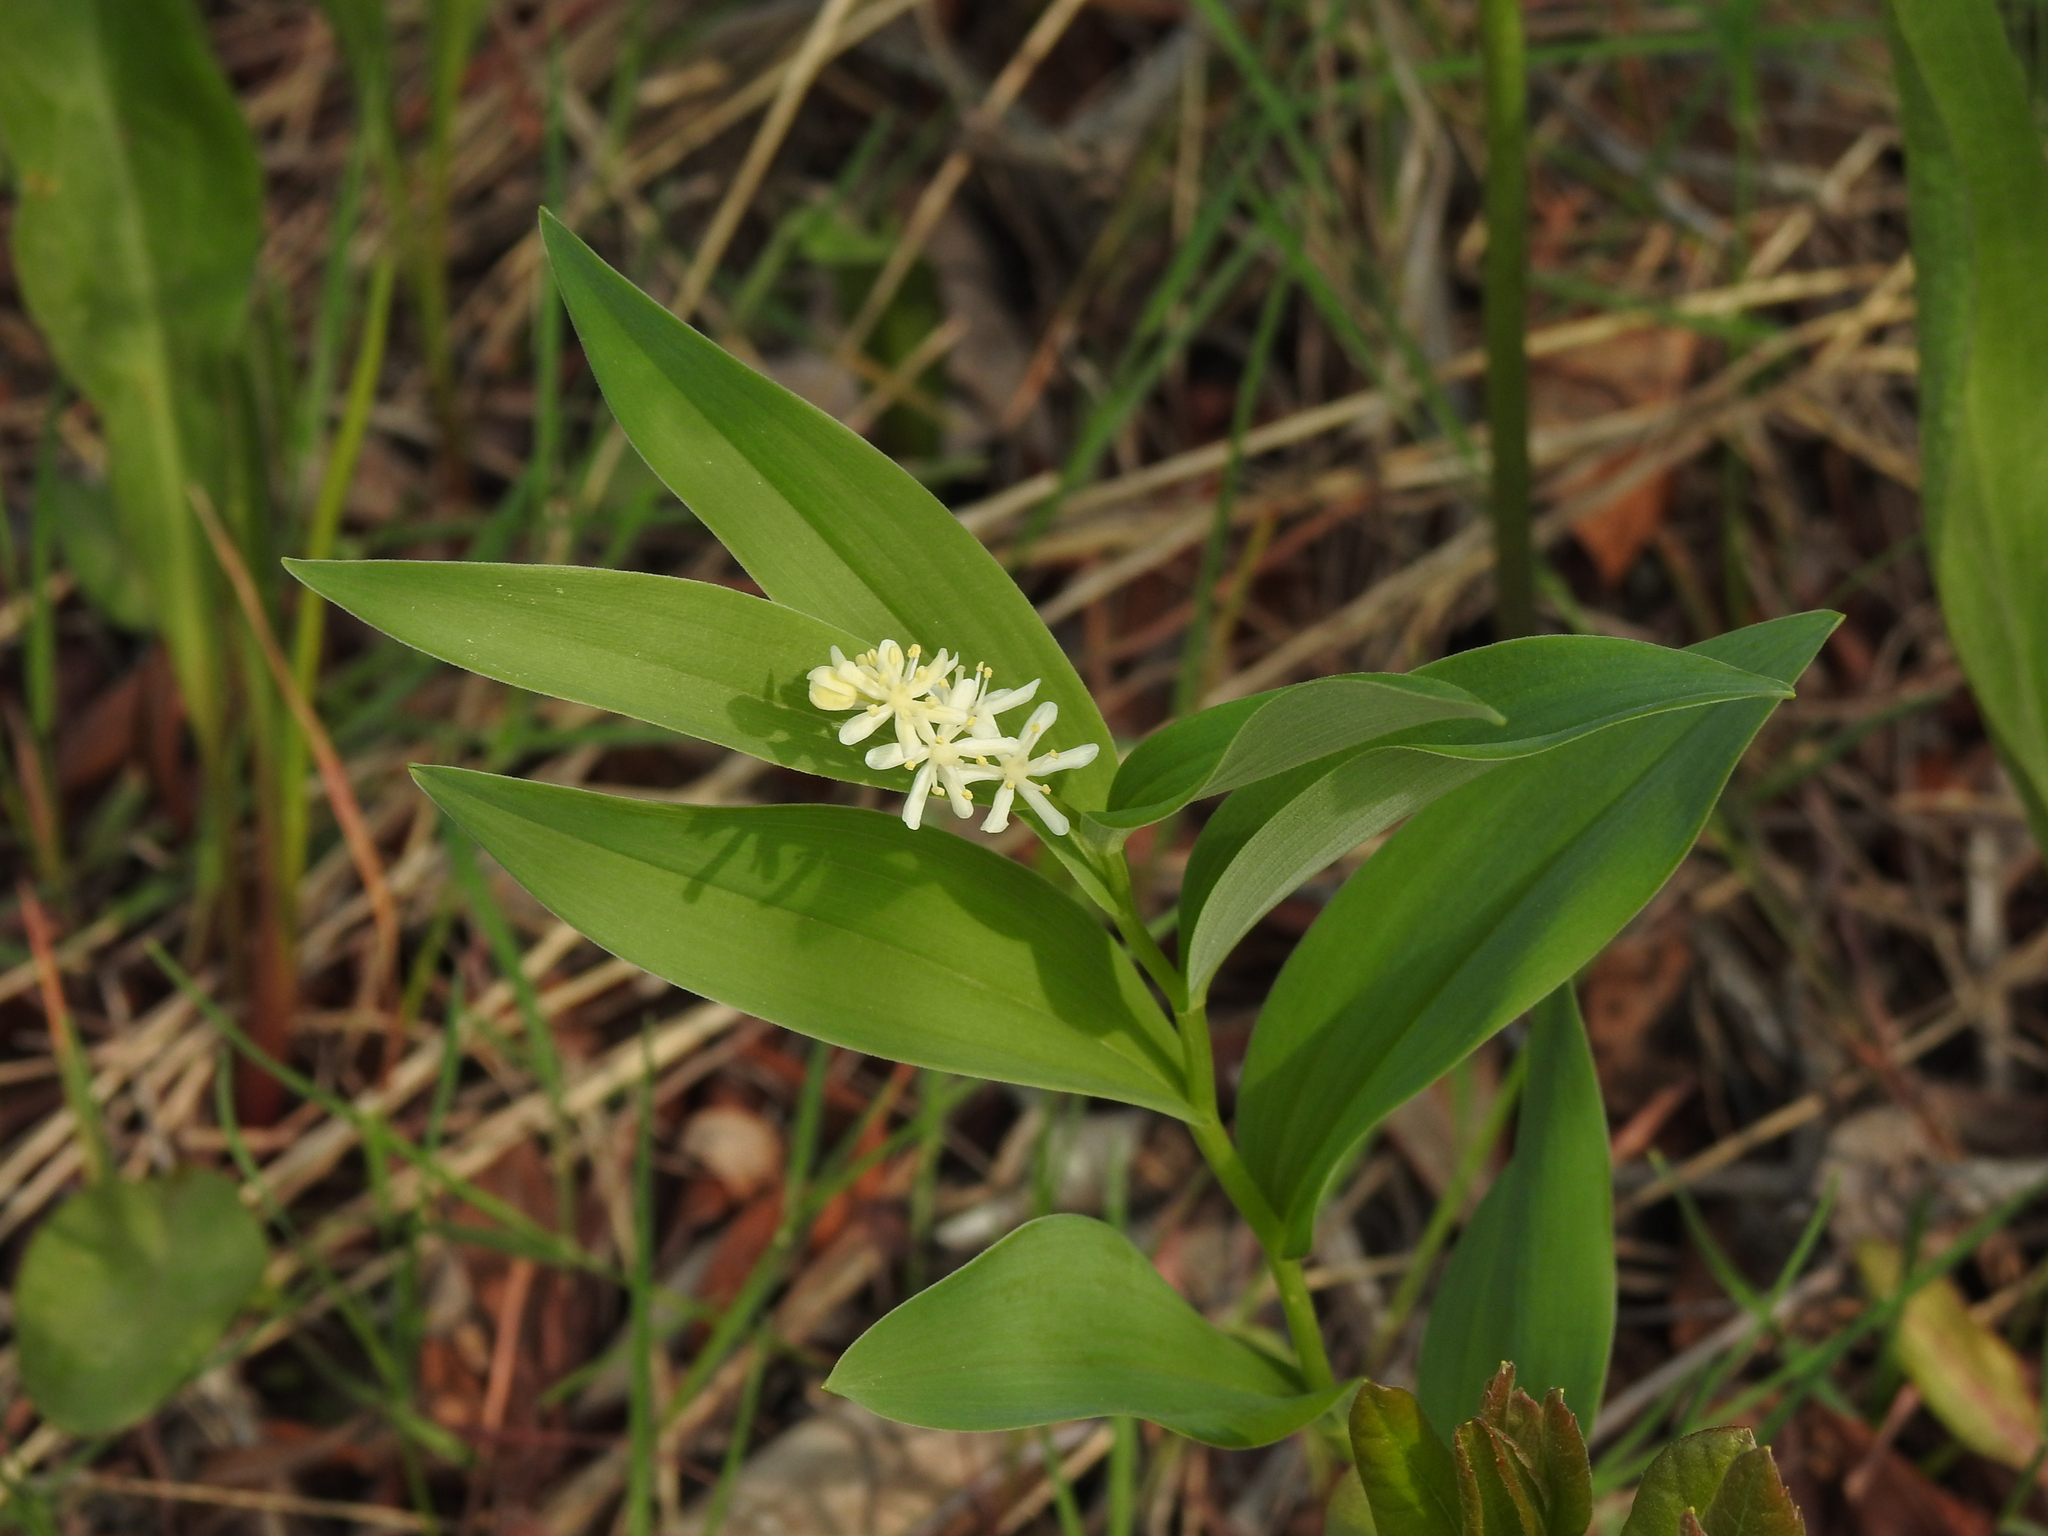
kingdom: Plantae
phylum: Tracheophyta
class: Liliopsida
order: Asparagales
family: Asparagaceae
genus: Maianthemum
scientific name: Maianthemum stellatum
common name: Little false solomon's seal
